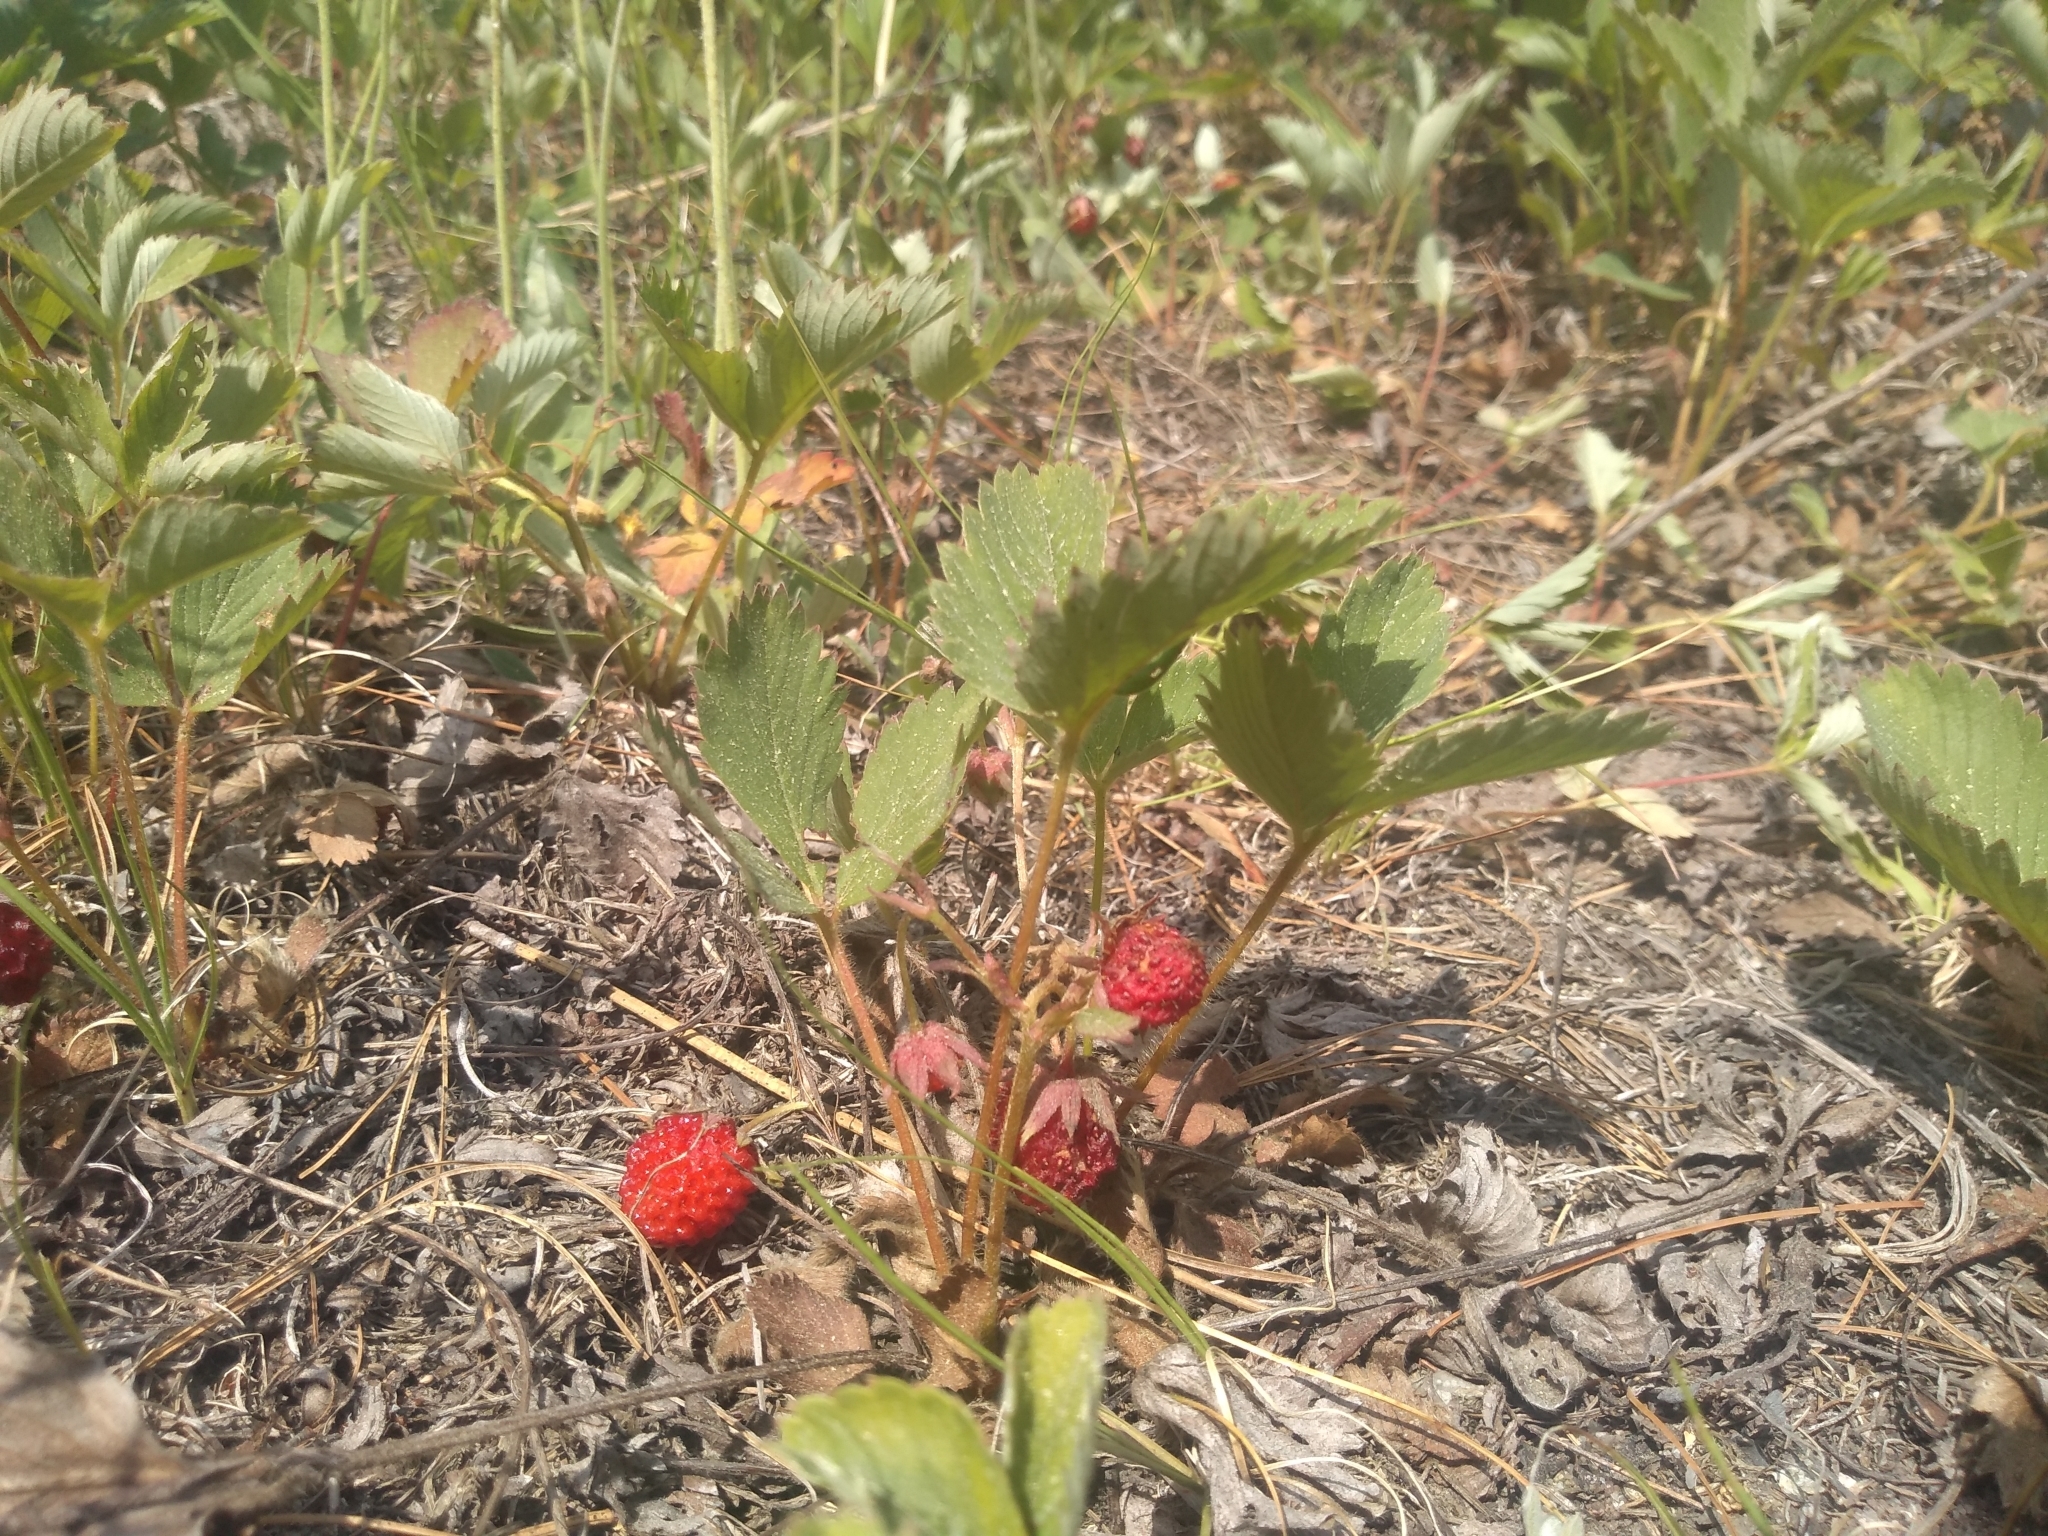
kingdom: Plantae
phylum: Tracheophyta
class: Magnoliopsida
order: Rosales
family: Rosaceae
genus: Fragaria
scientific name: Fragaria virginiana
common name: Thickleaved wild strawberry
